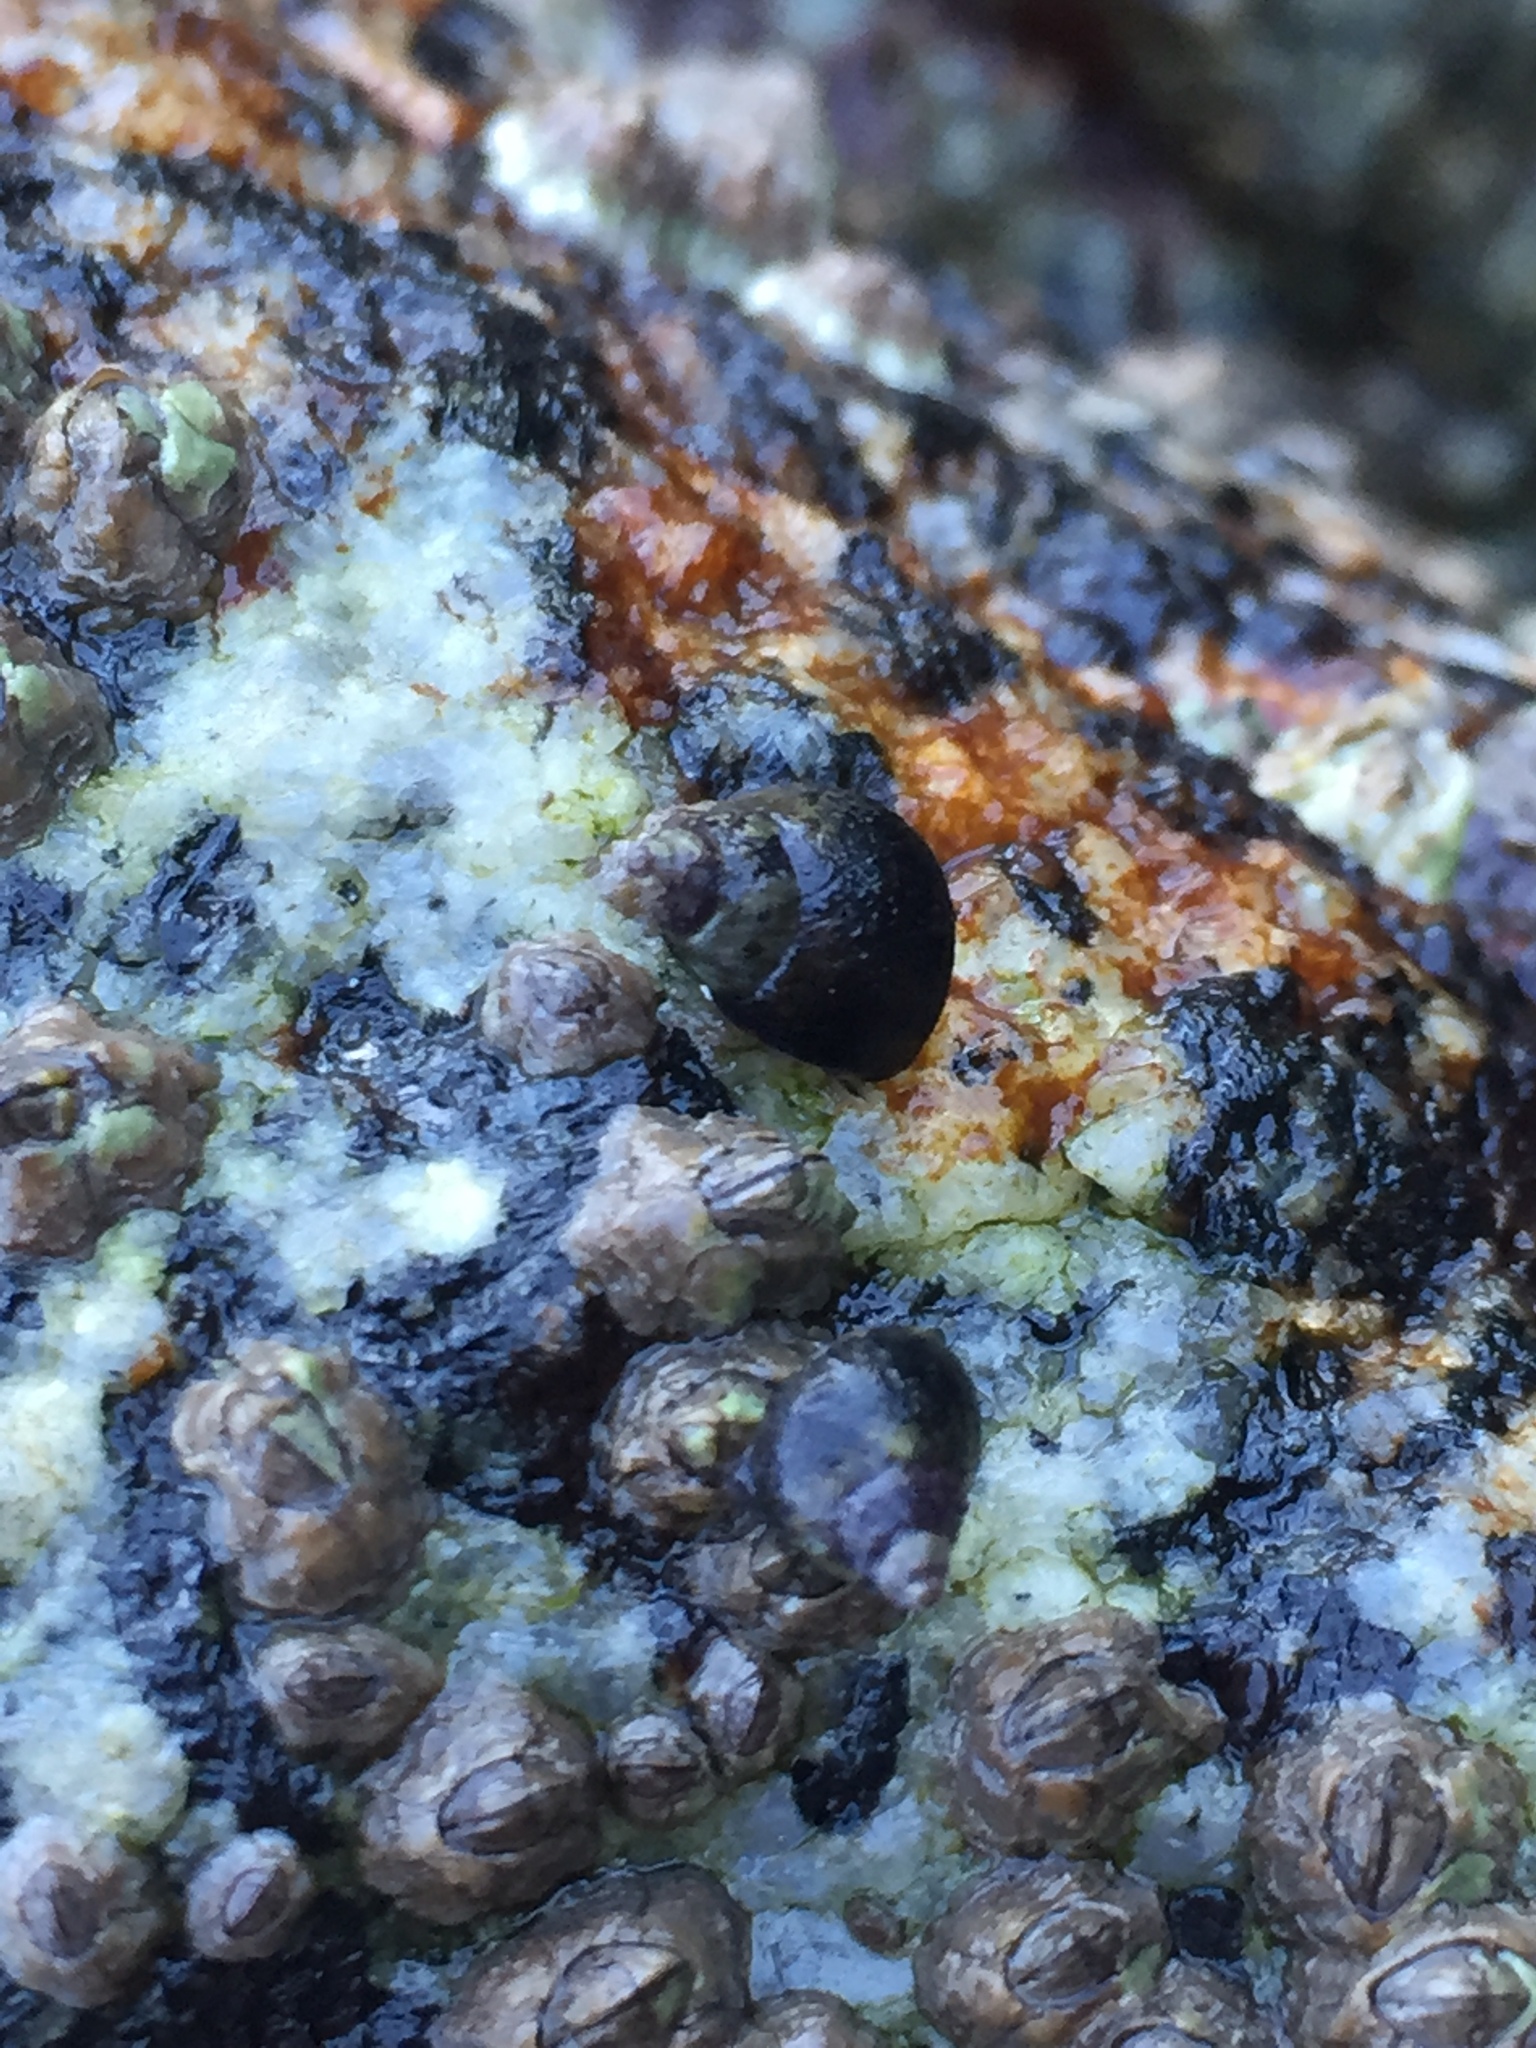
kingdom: Animalia
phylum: Mollusca
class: Gastropoda
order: Littorinimorpha
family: Littorinidae
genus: Littorina
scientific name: Littorina scutulata
